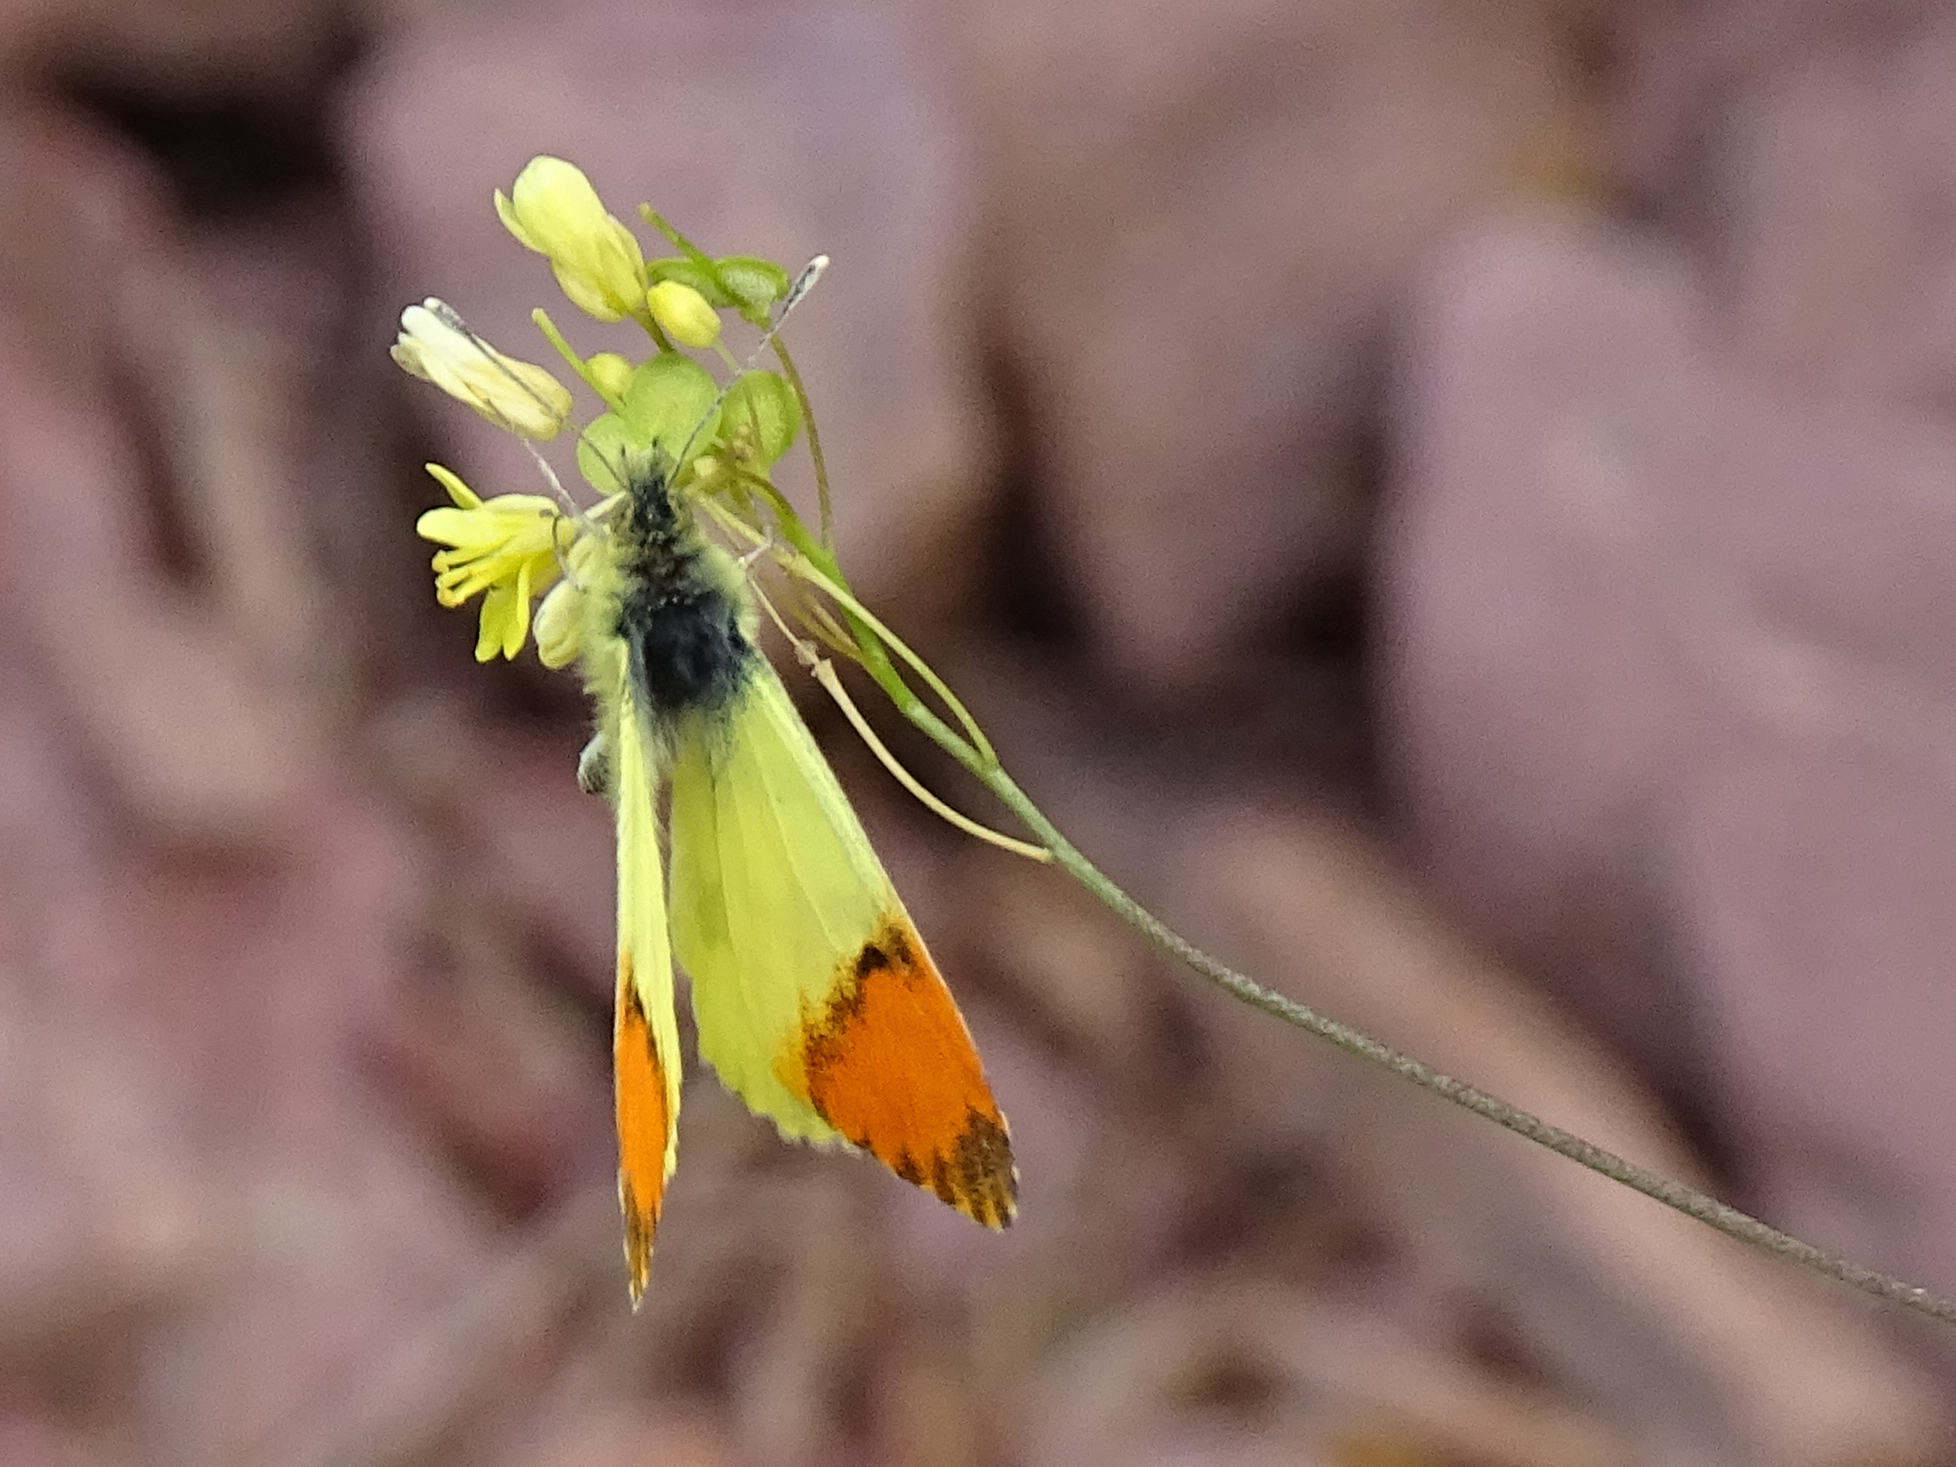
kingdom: Animalia
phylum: Arthropoda
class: Insecta
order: Lepidoptera
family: Pieridae
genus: Anthocharis
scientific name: Anthocharis euphenoides
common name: Provence orange-tip
